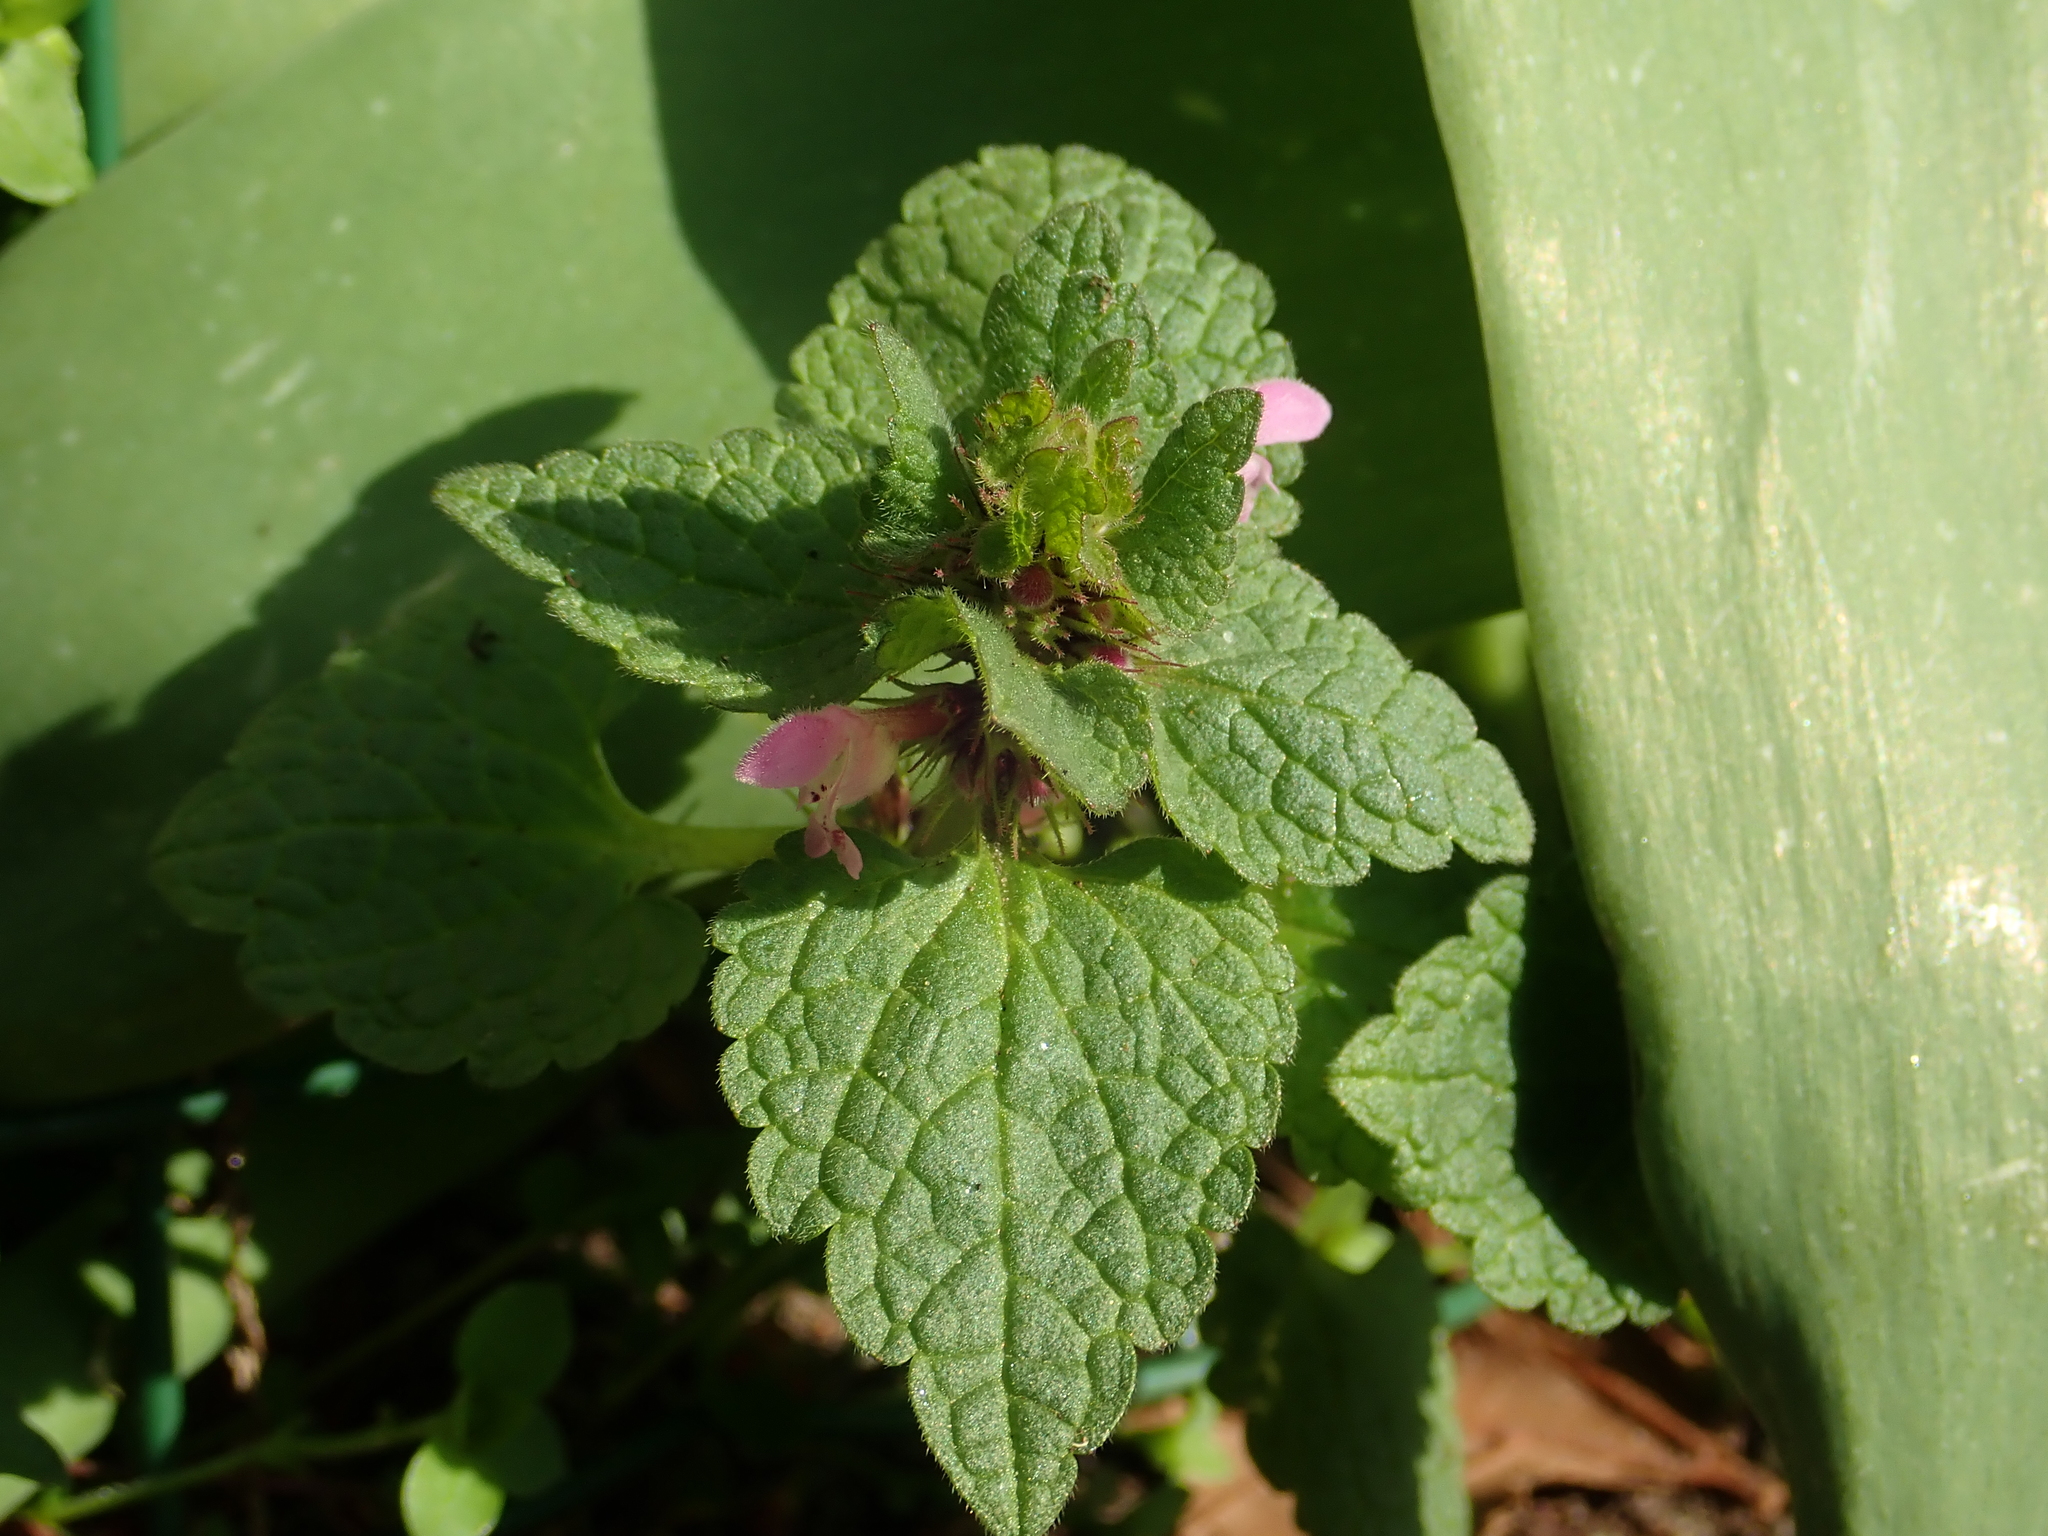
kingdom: Plantae
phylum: Tracheophyta
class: Magnoliopsida
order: Lamiales
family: Lamiaceae
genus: Lamium
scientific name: Lamium purpureum
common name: Red dead-nettle
